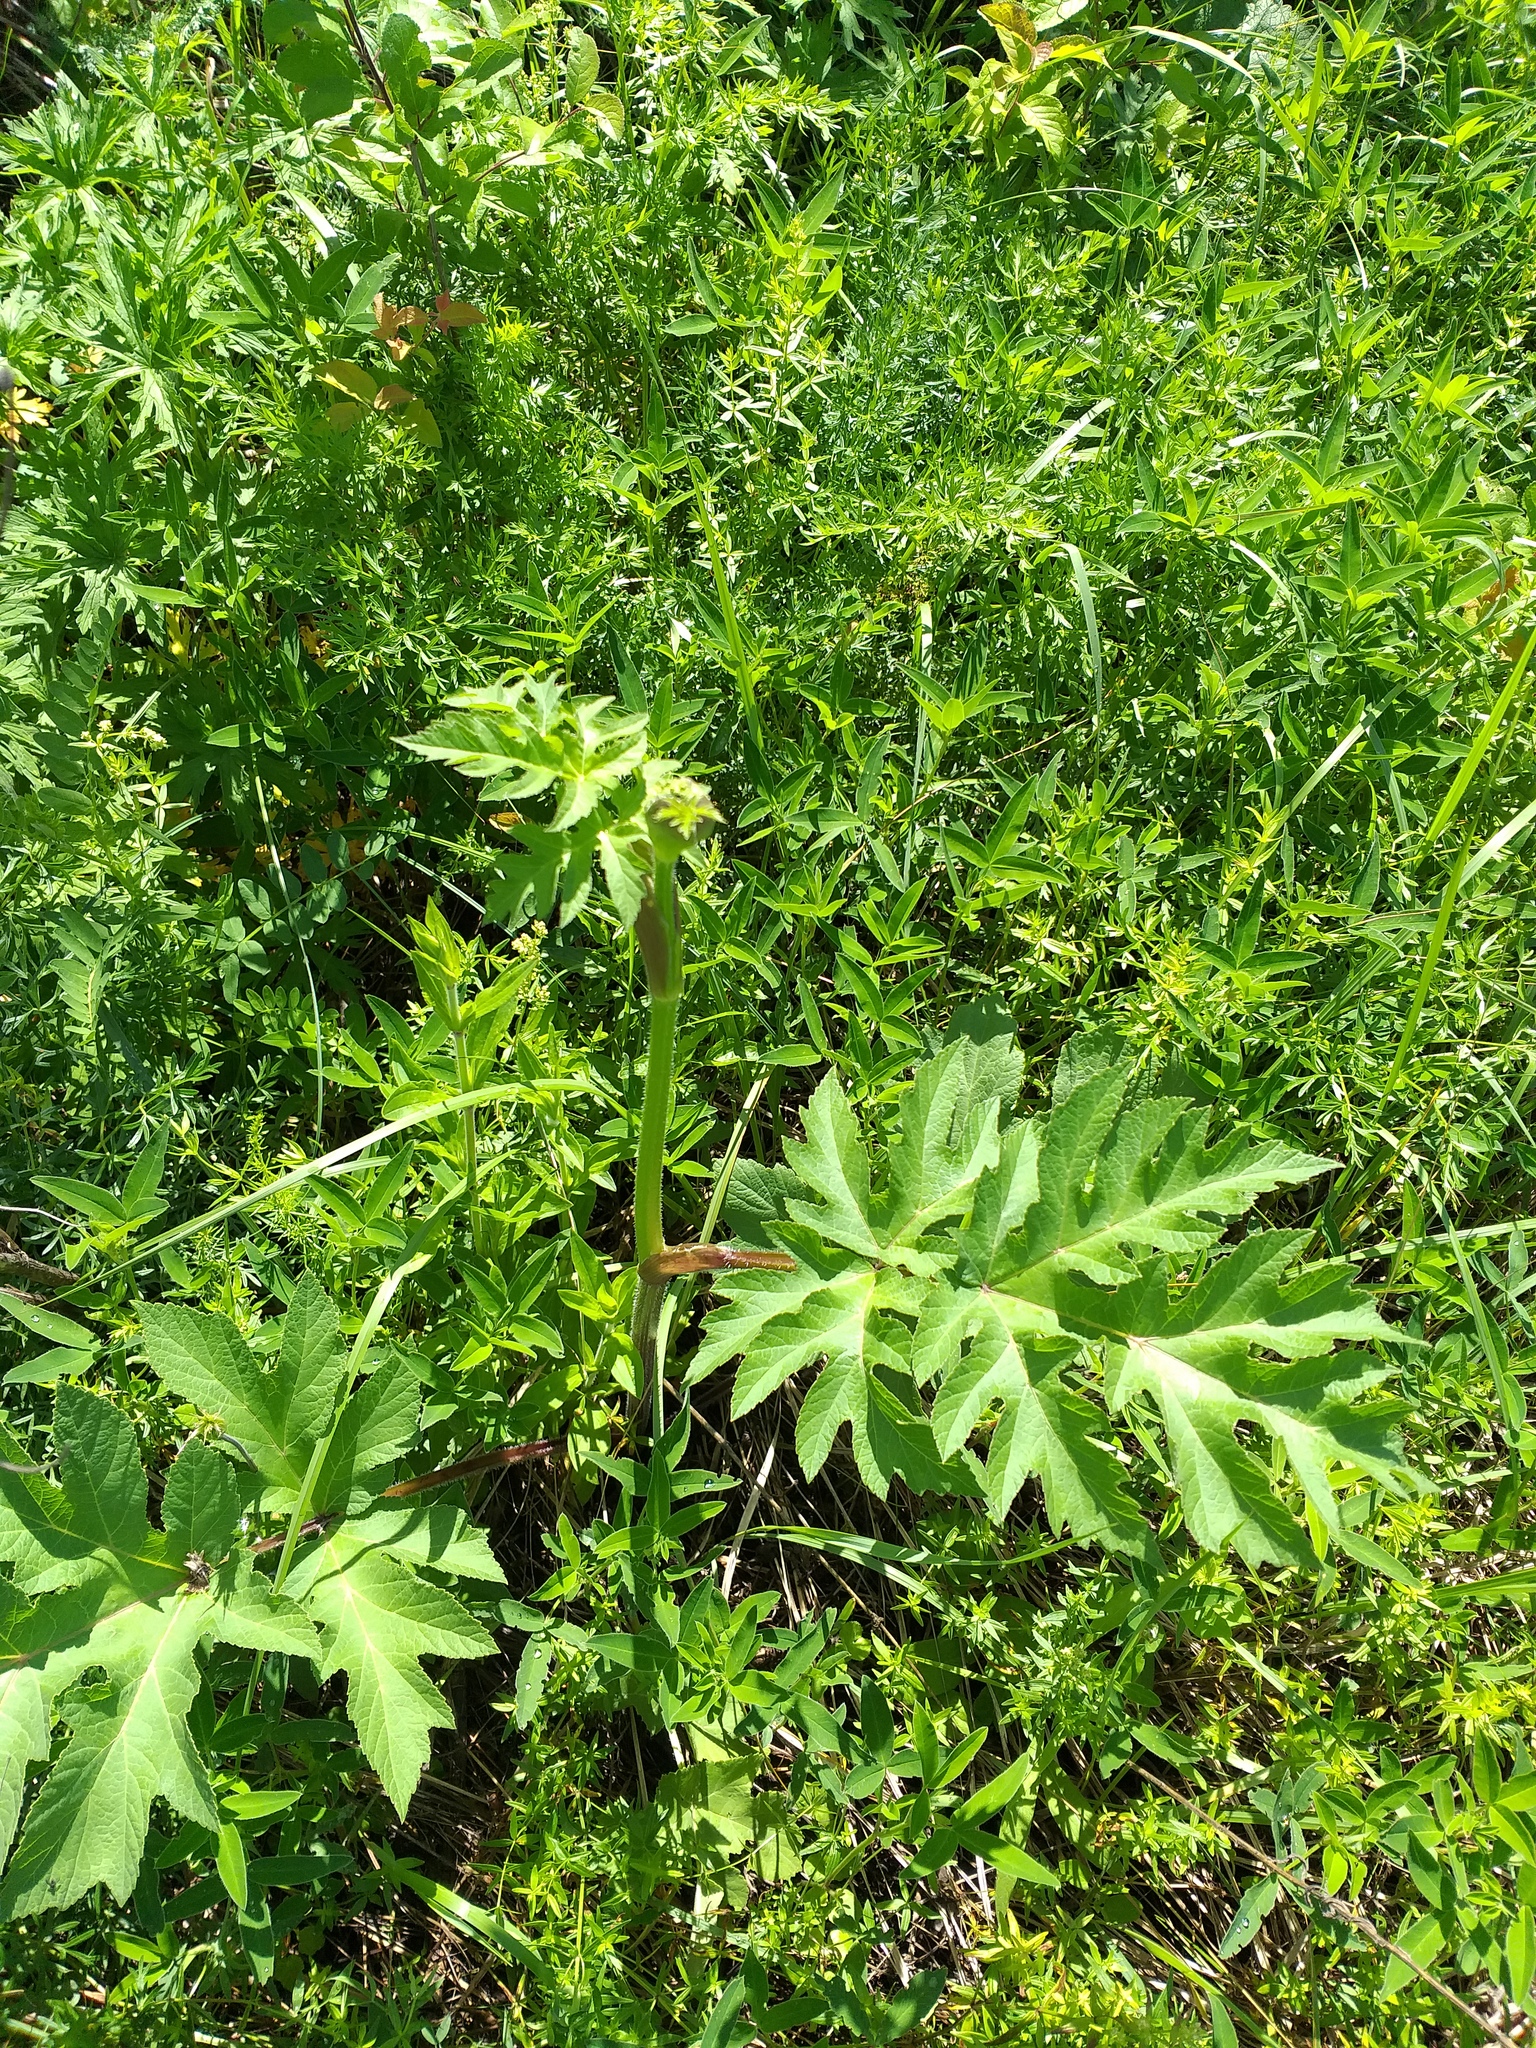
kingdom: Plantae
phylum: Tracheophyta
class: Magnoliopsida
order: Apiales
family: Apiaceae
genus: Heracleum
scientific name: Heracleum sphondylium
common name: Hogweed
